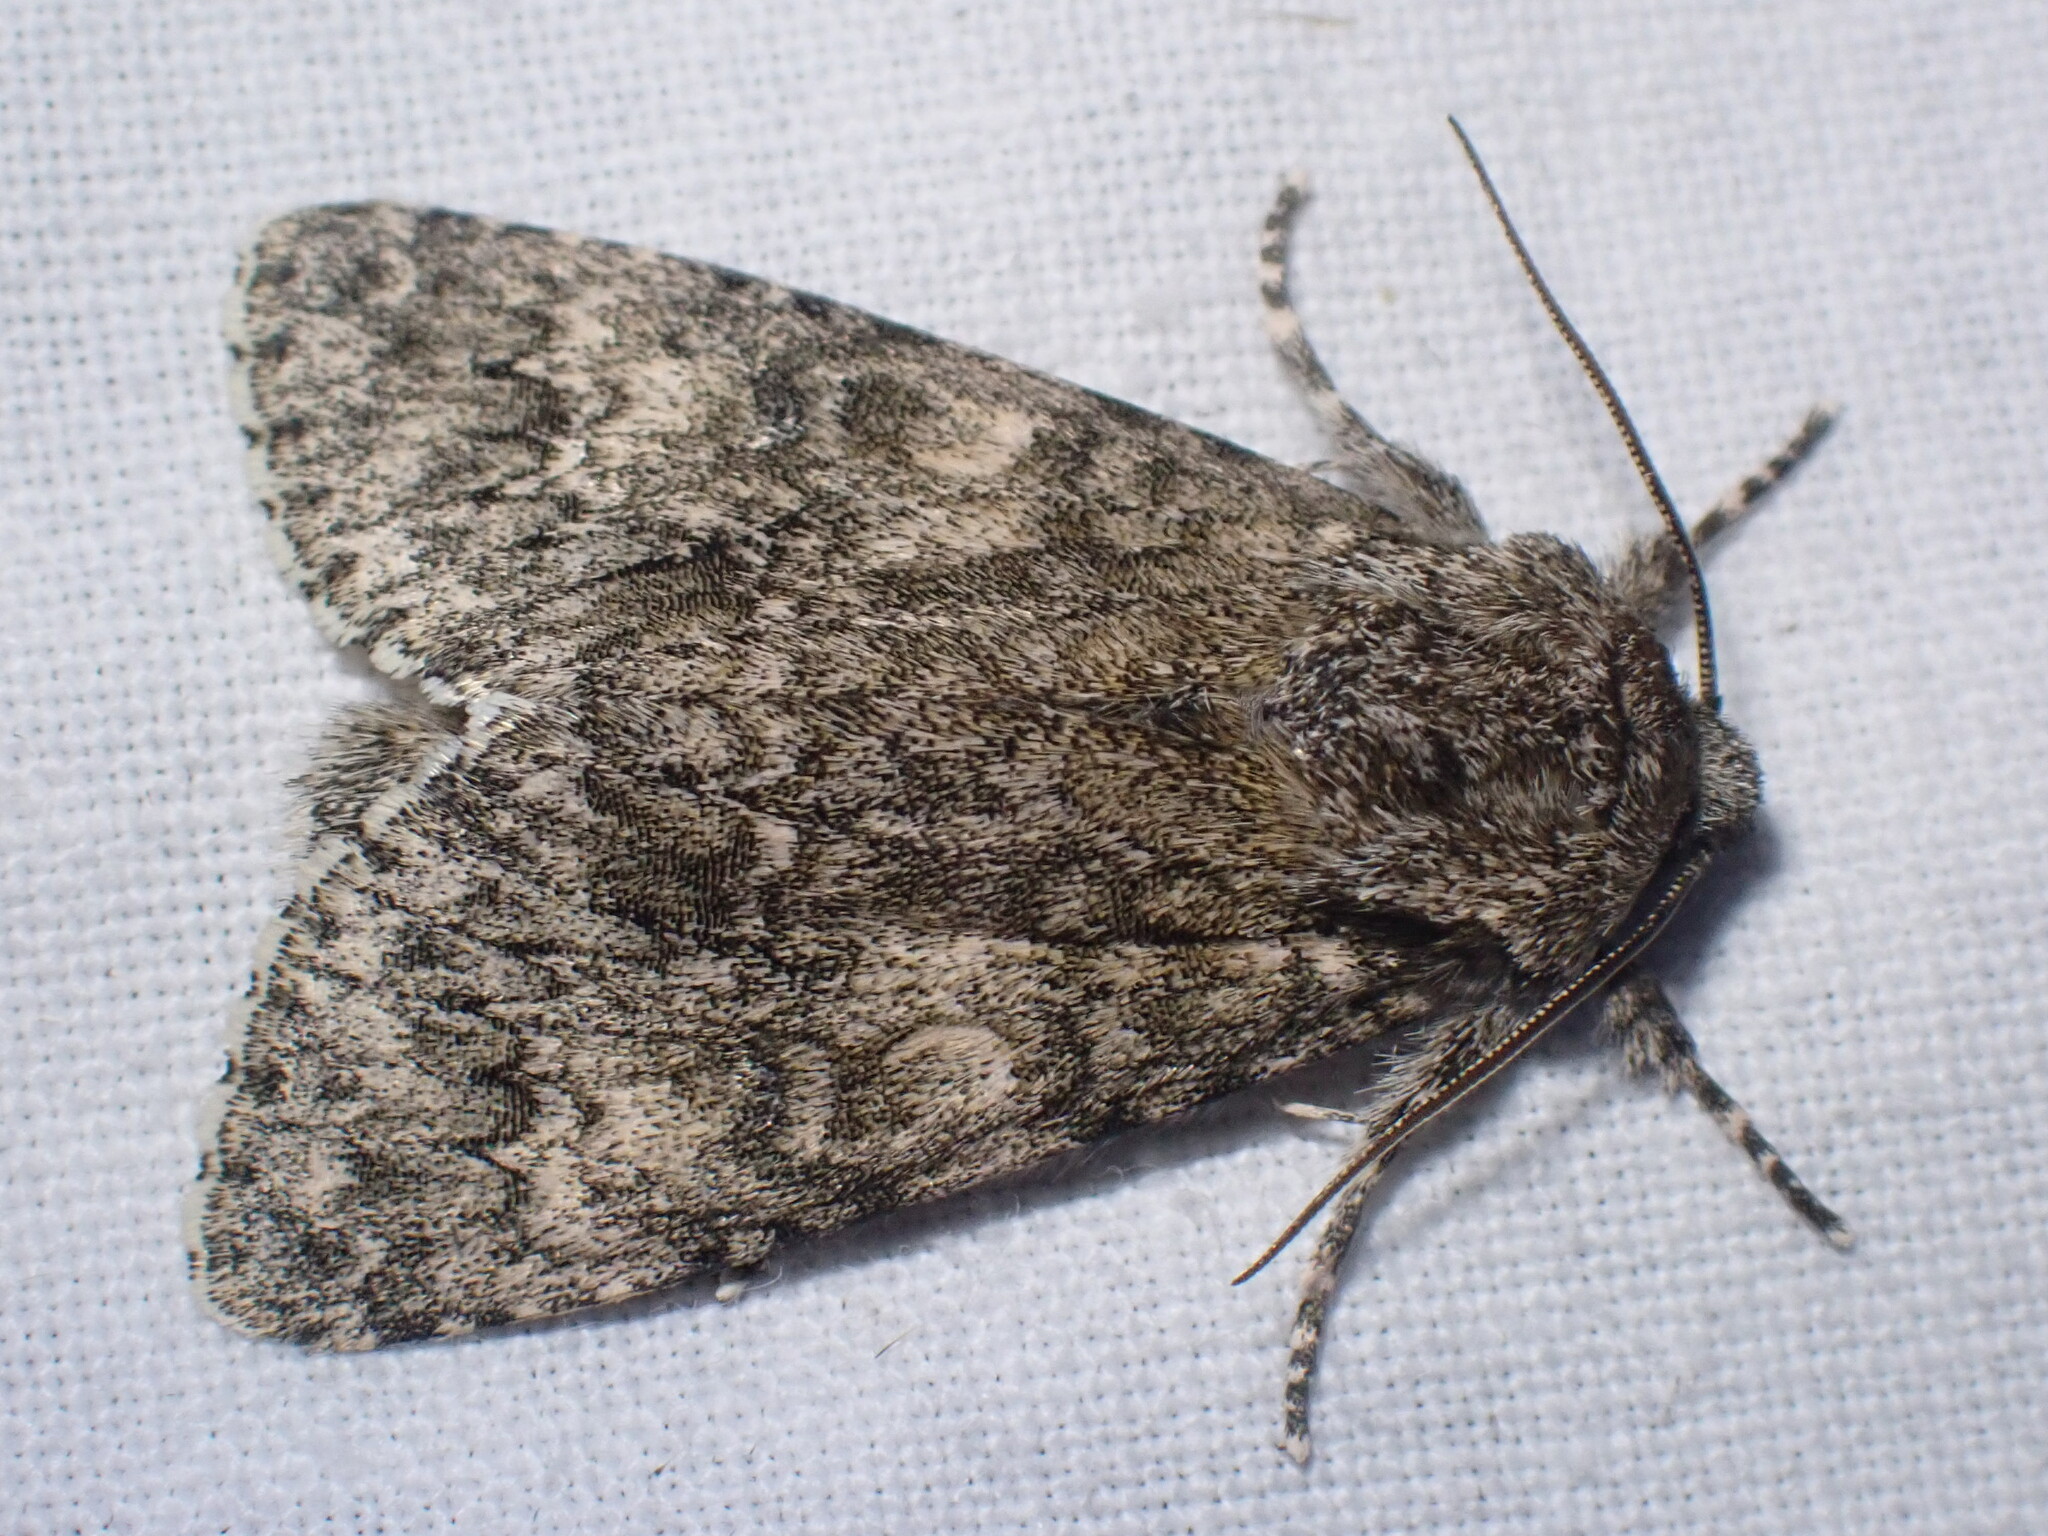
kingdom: Animalia
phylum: Arthropoda
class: Insecta
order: Lepidoptera
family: Noctuidae
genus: Acronicta
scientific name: Acronicta megacephala
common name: Poplar grey
